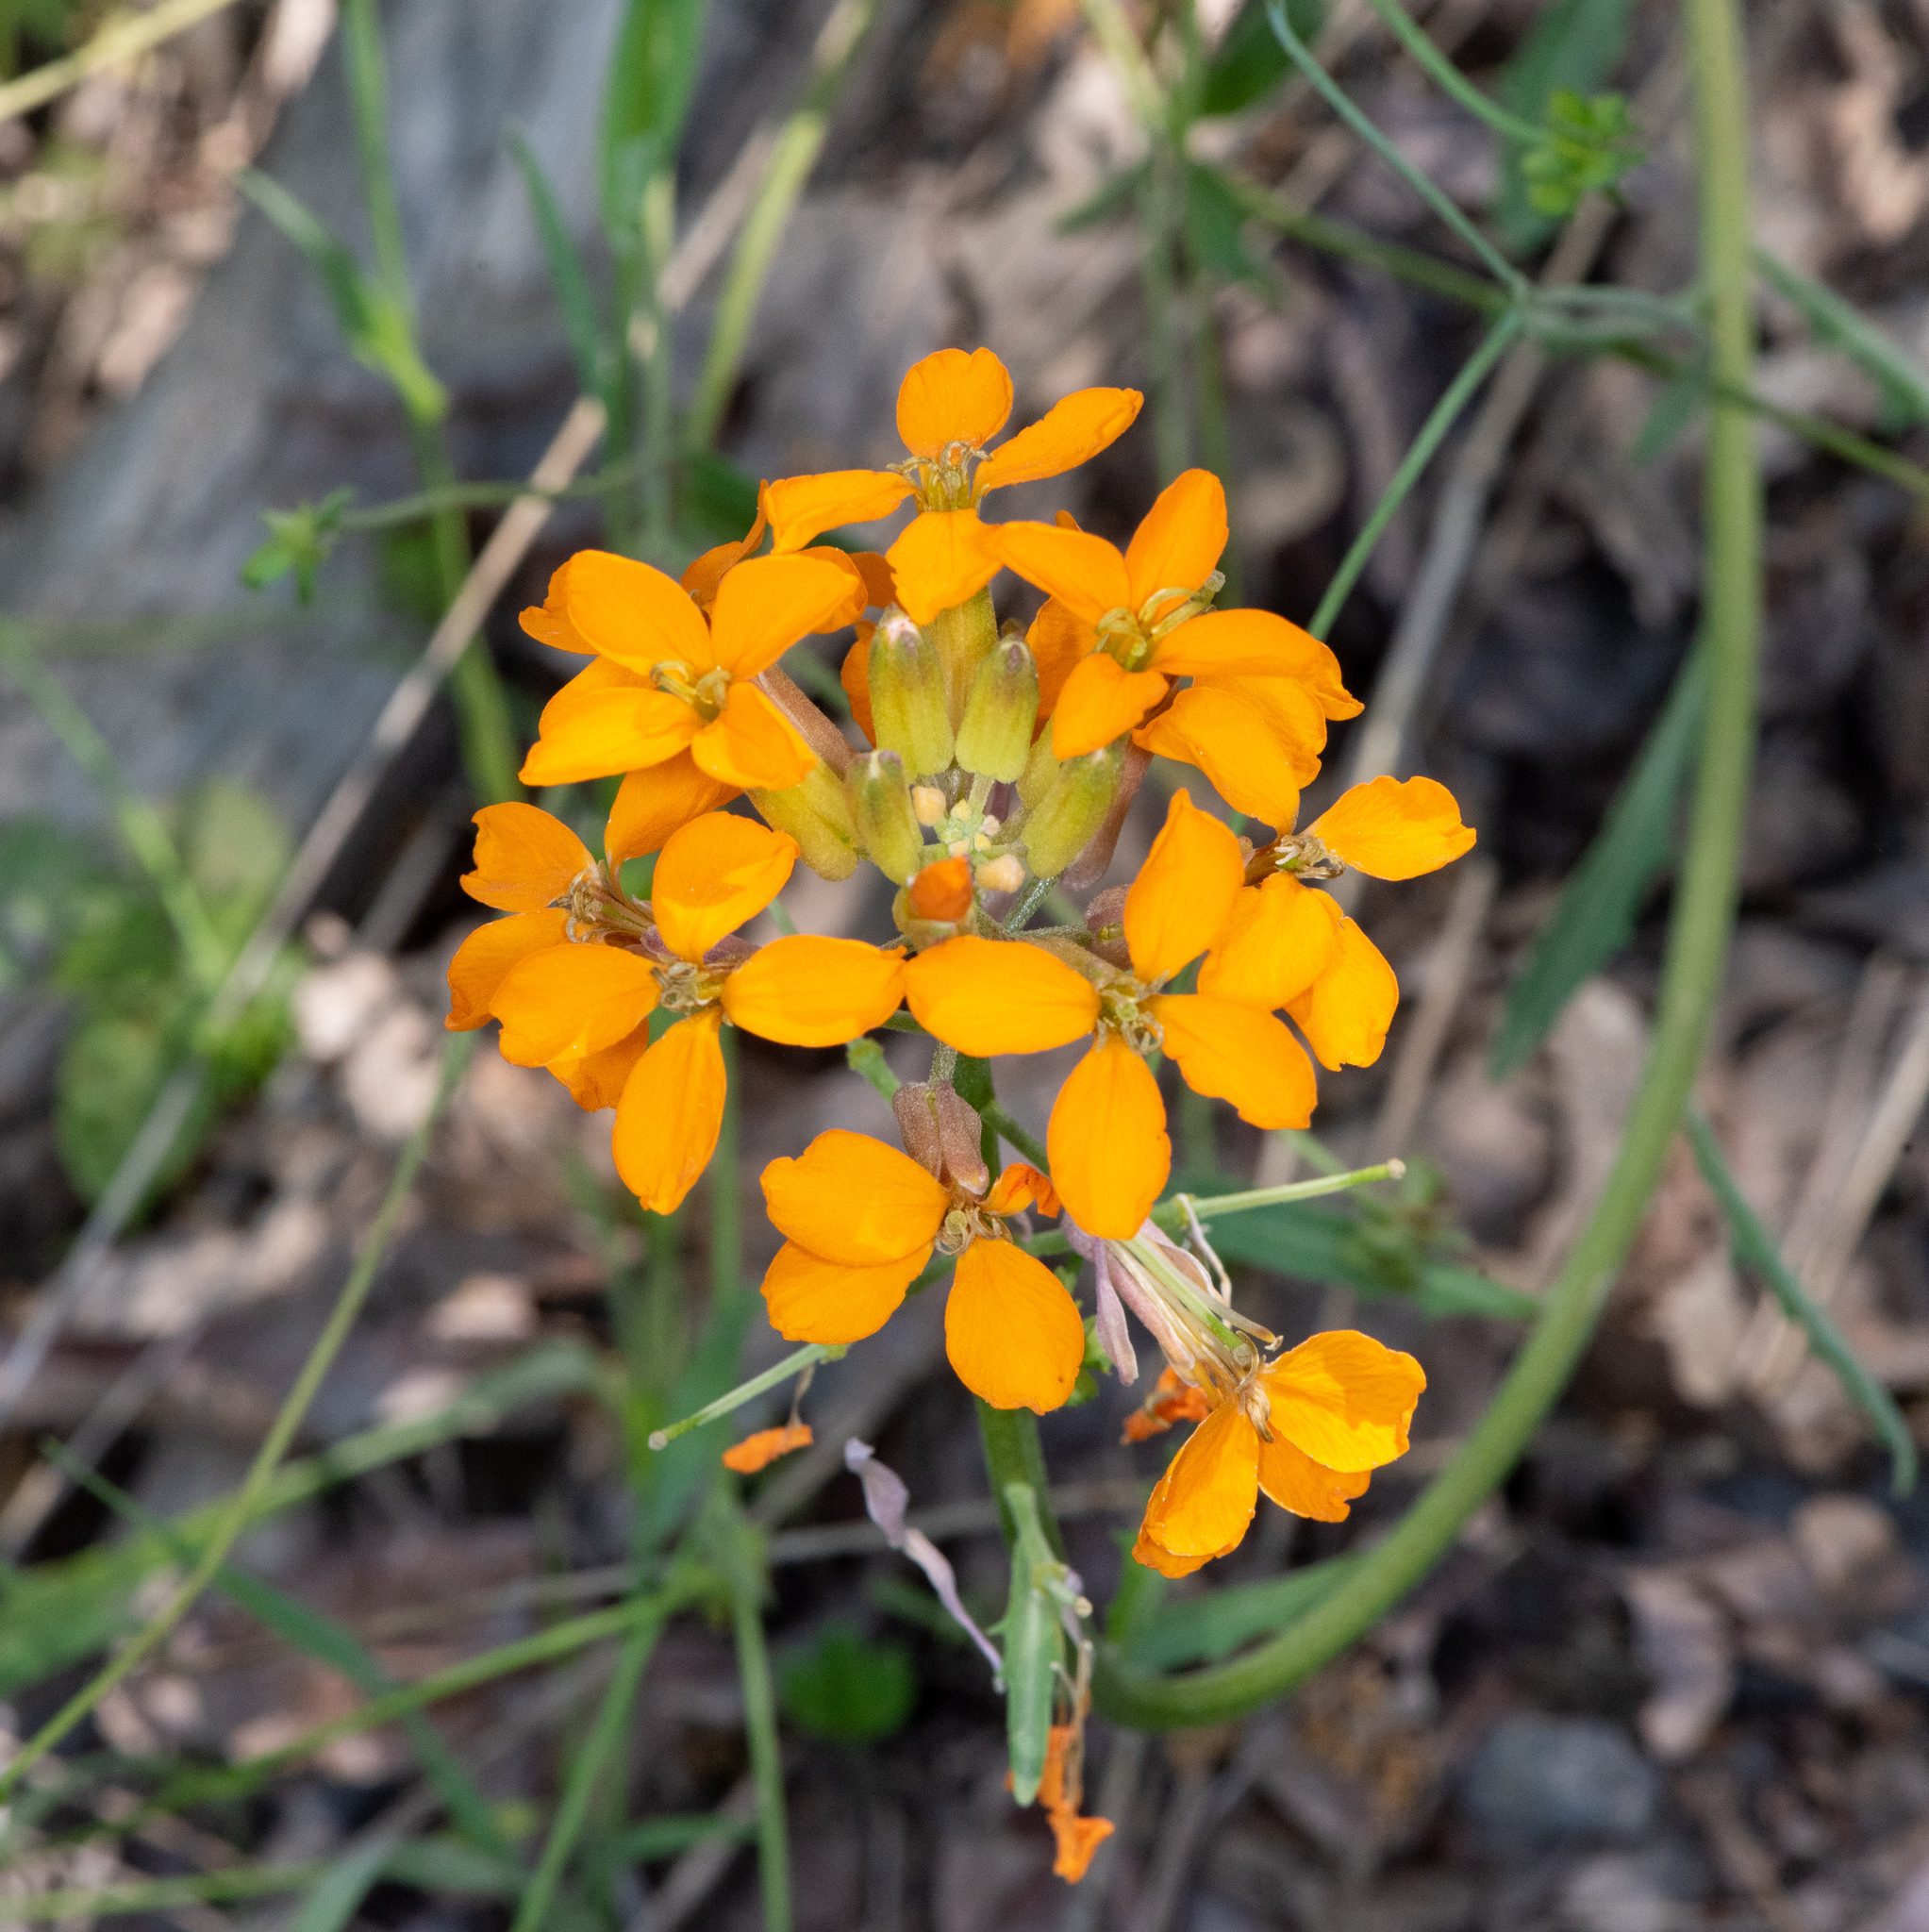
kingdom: Plantae
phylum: Tracheophyta
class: Magnoliopsida
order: Brassicales
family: Brassicaceae
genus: Erysimum
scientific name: Erysimum capitatum
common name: Western wallflower
